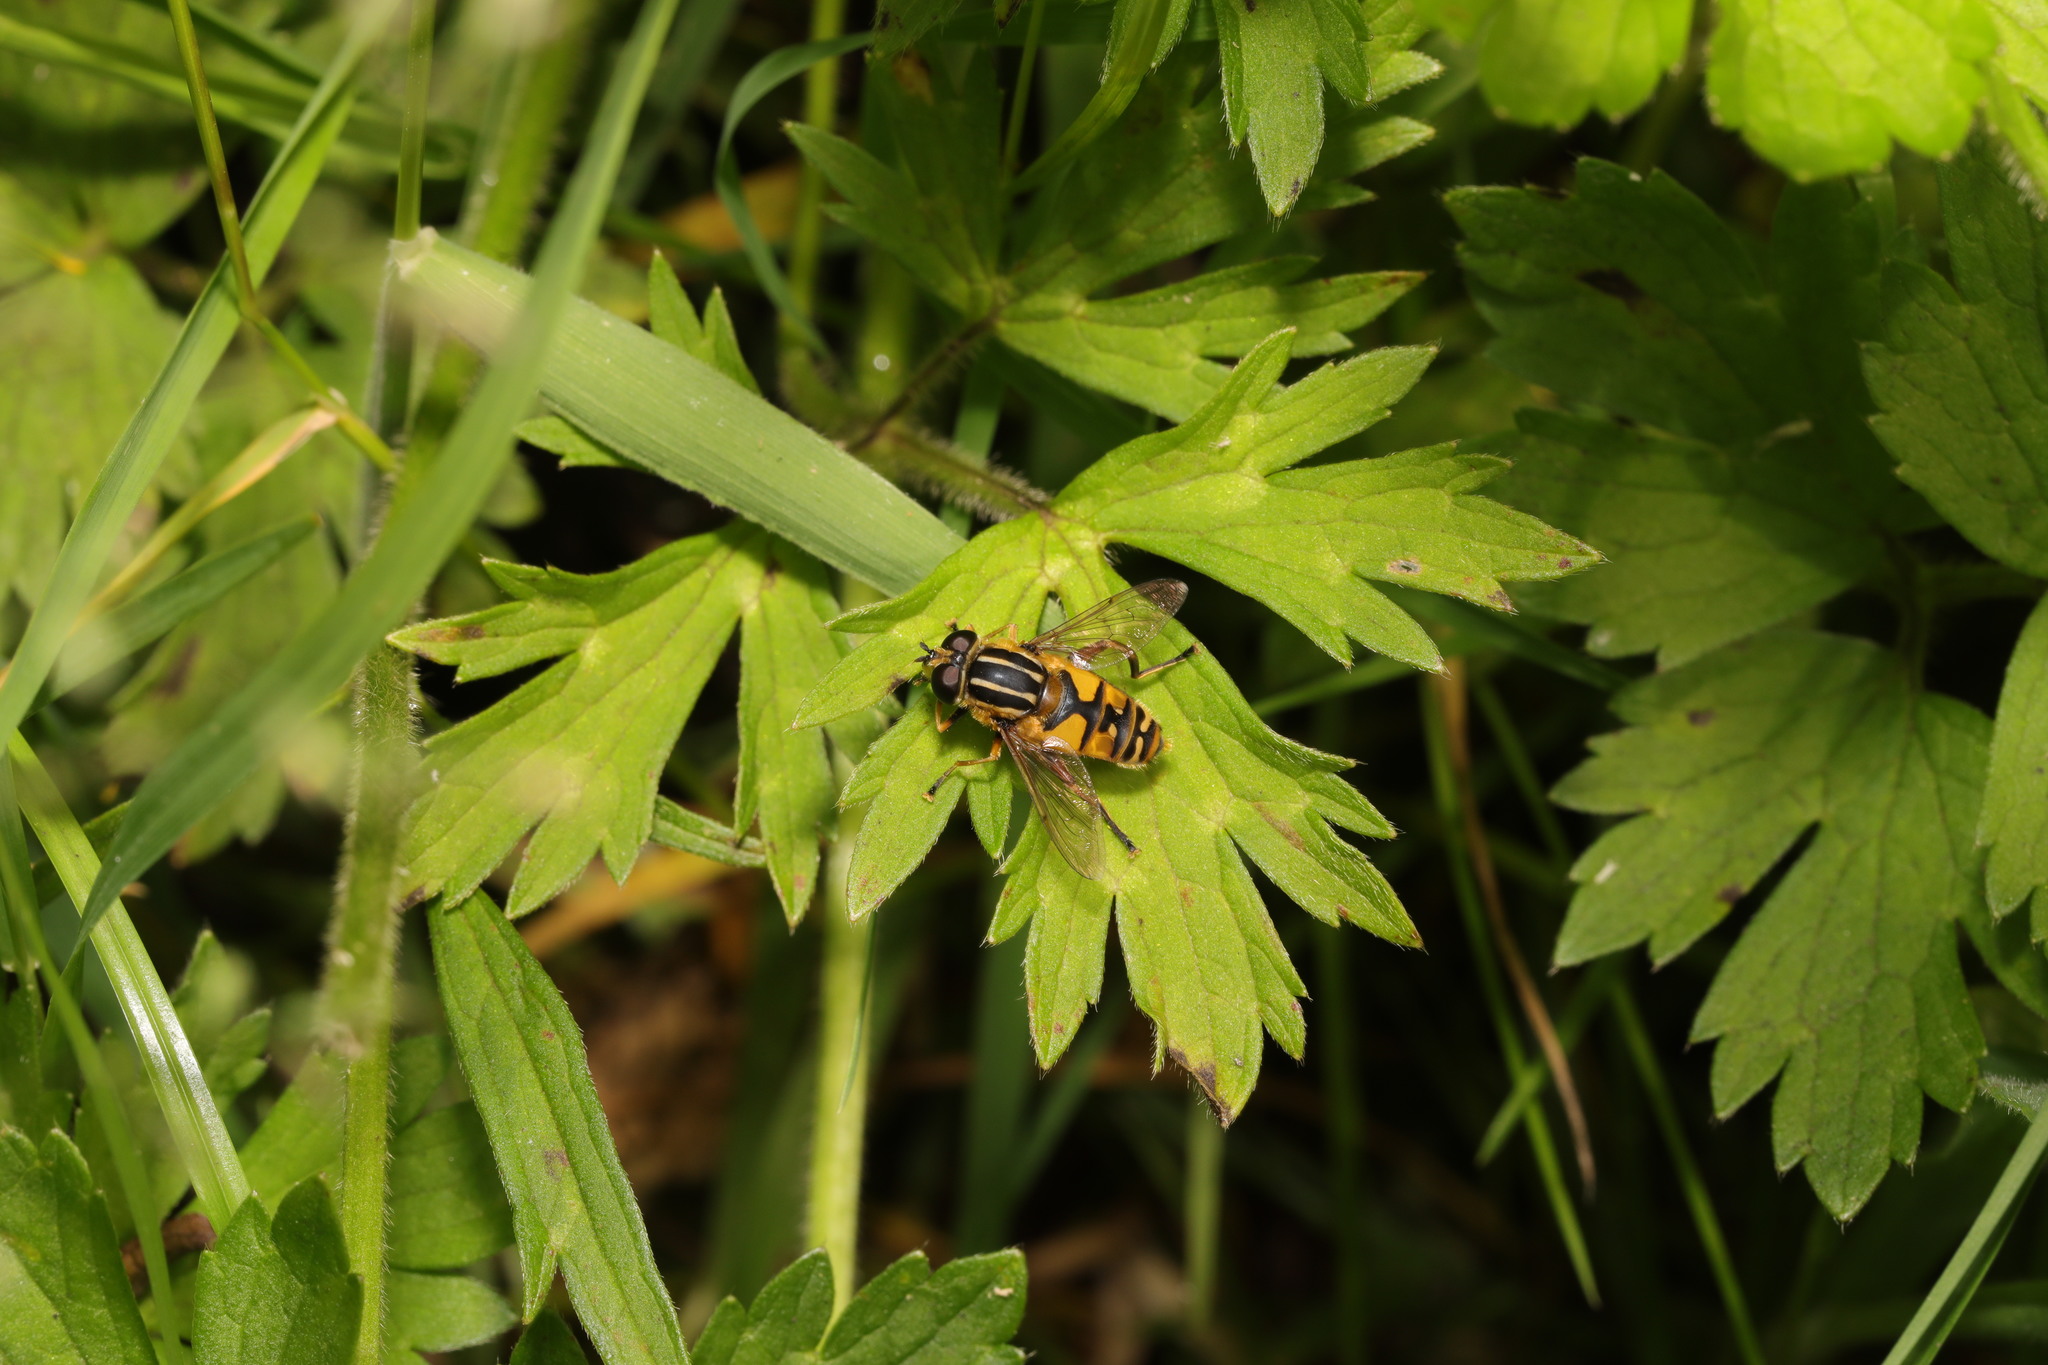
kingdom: Animalia
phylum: Arthropoda
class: Insecta
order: Diptera
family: Syrphidae
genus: Helophilus
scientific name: Helophilus pendulus
